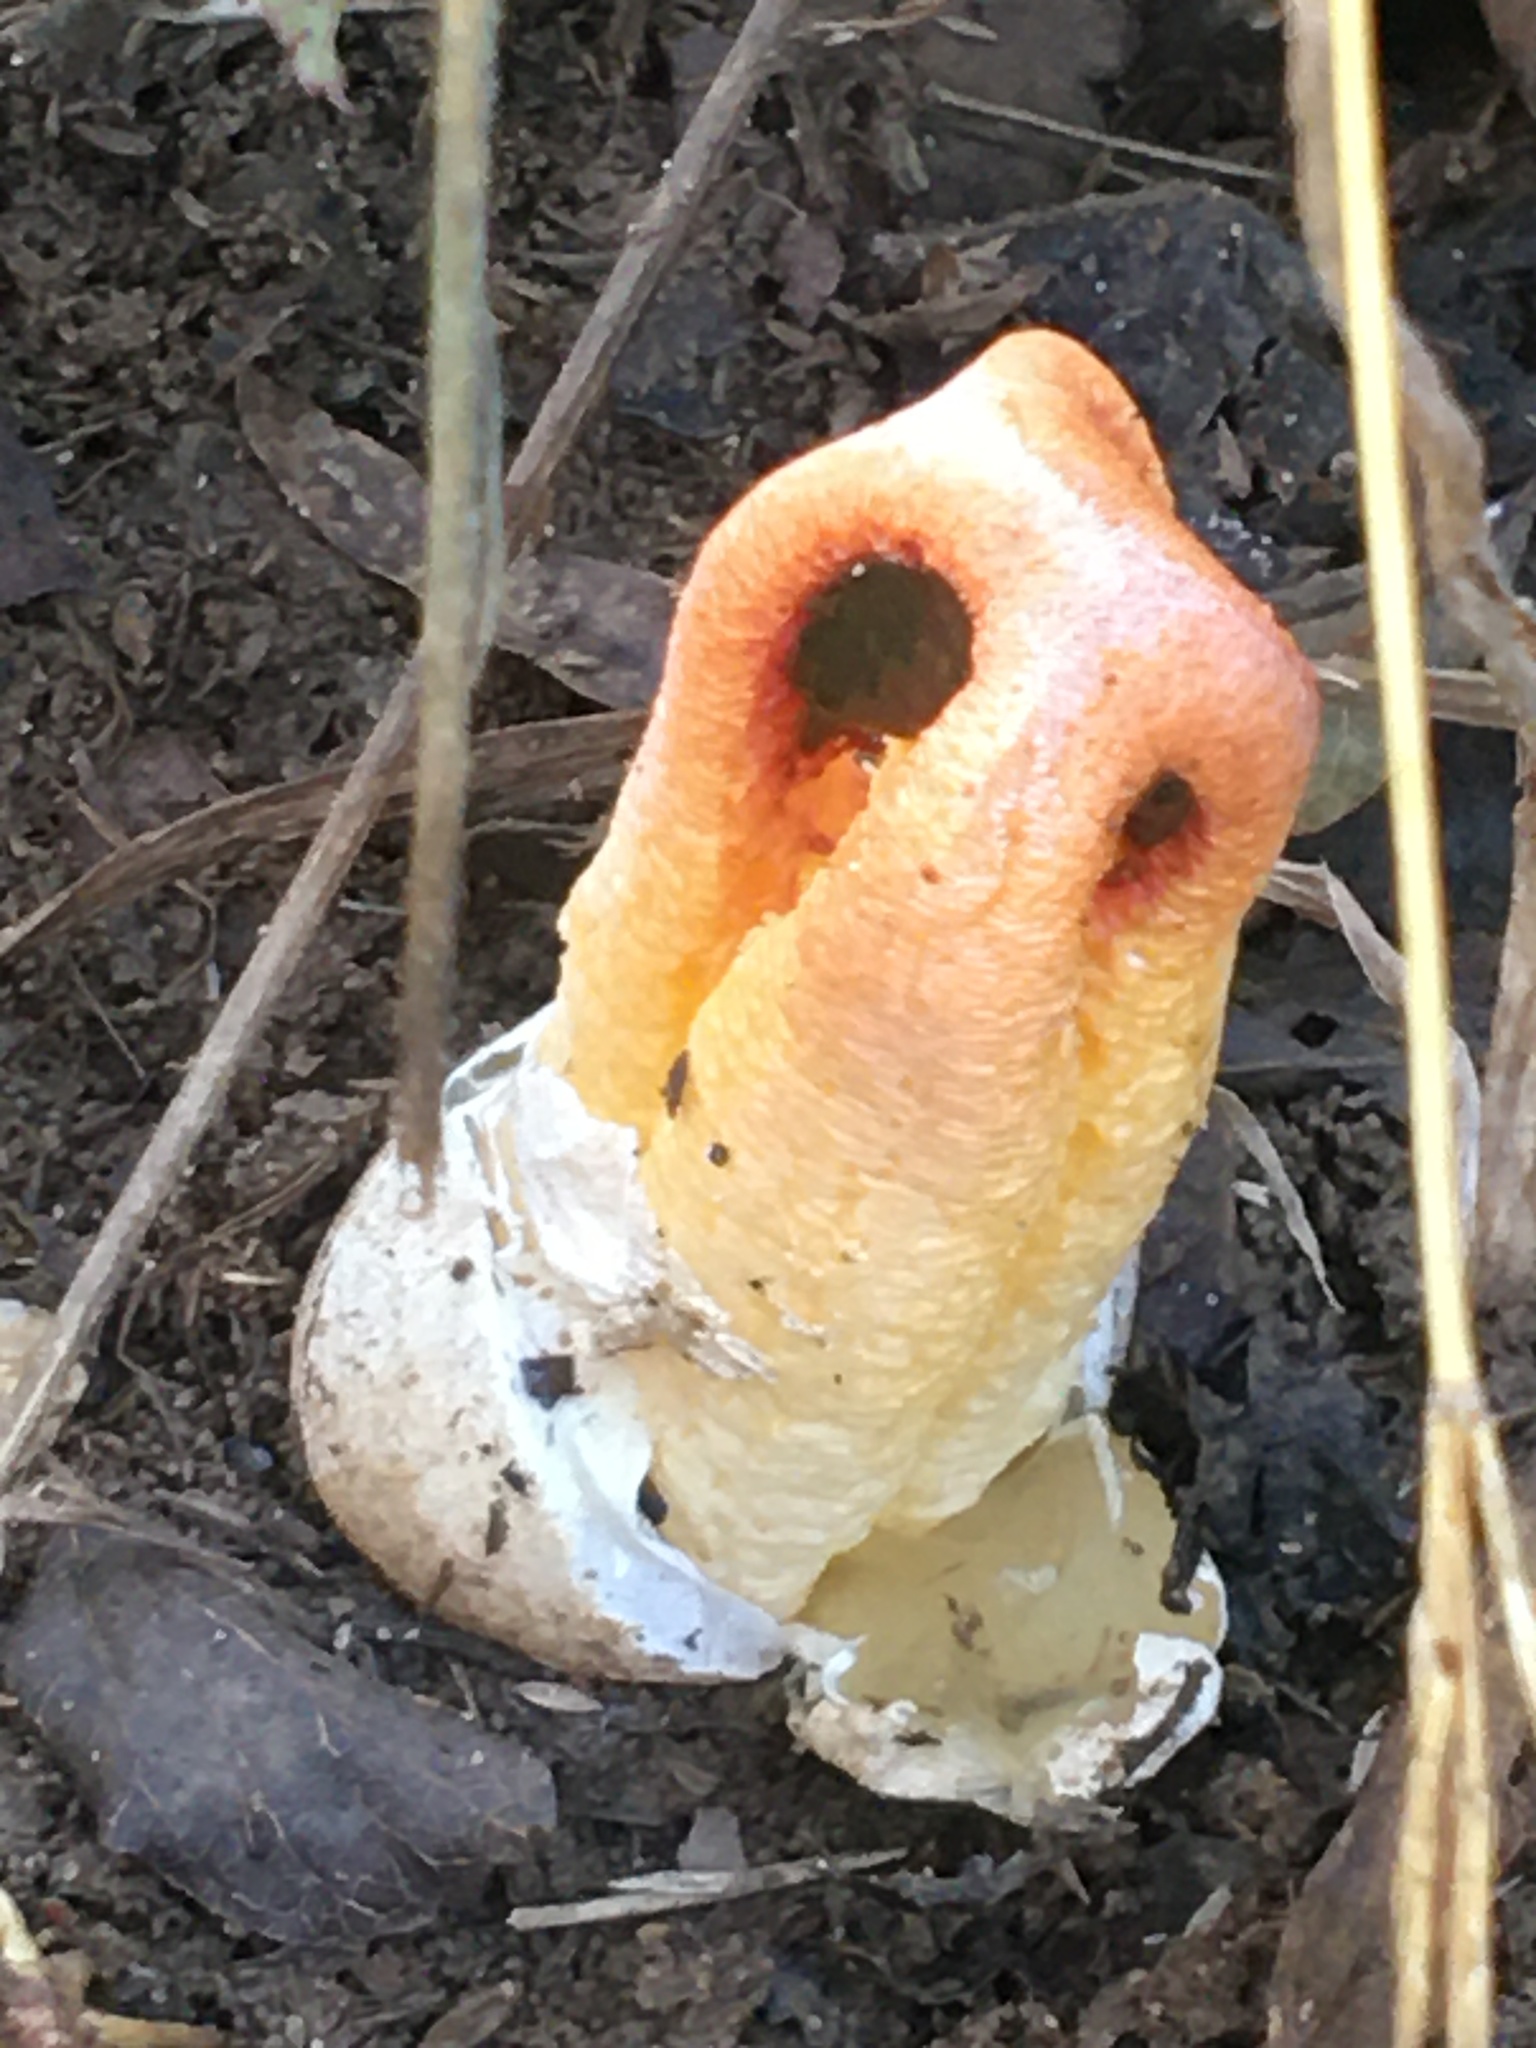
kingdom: Fungi
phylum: Basidiomycota
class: Agaricomycetes
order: Phallales
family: Phallaceae
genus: Clathrus
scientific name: Clathrus columnatus
